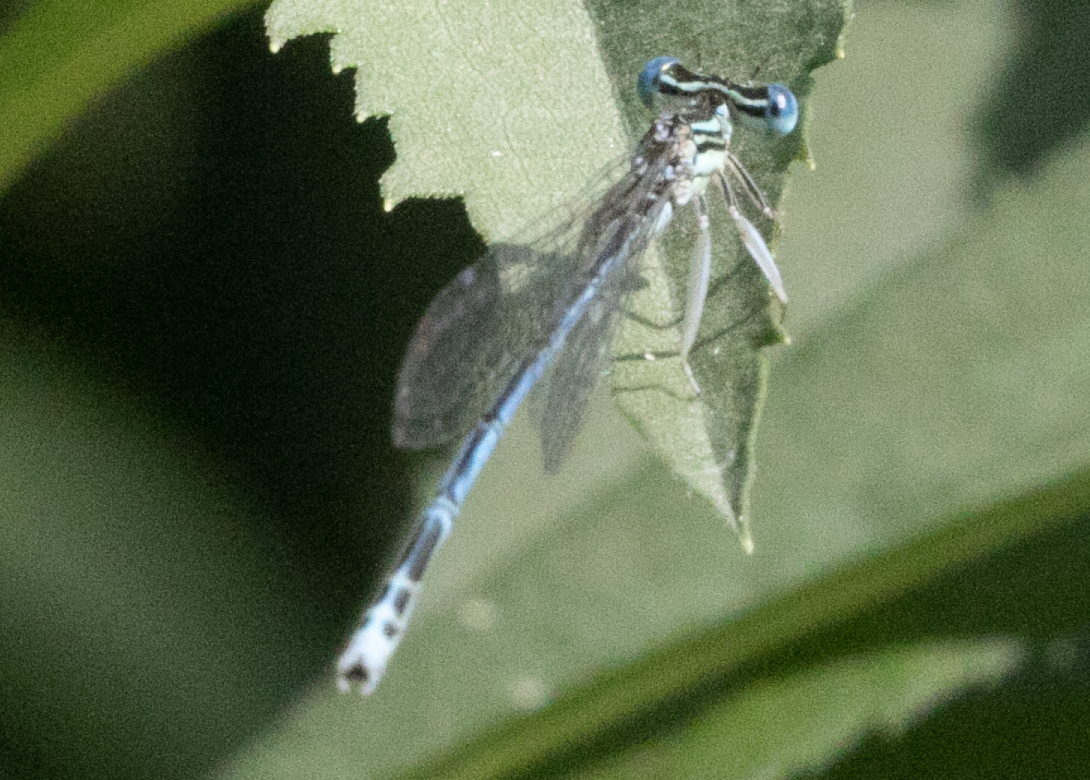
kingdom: Animalia
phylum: Arthropoda
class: Insecta
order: Odonata
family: Platycnemididae
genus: Platycnemis
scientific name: Platycnemis pennipes
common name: White-legged damselfly
